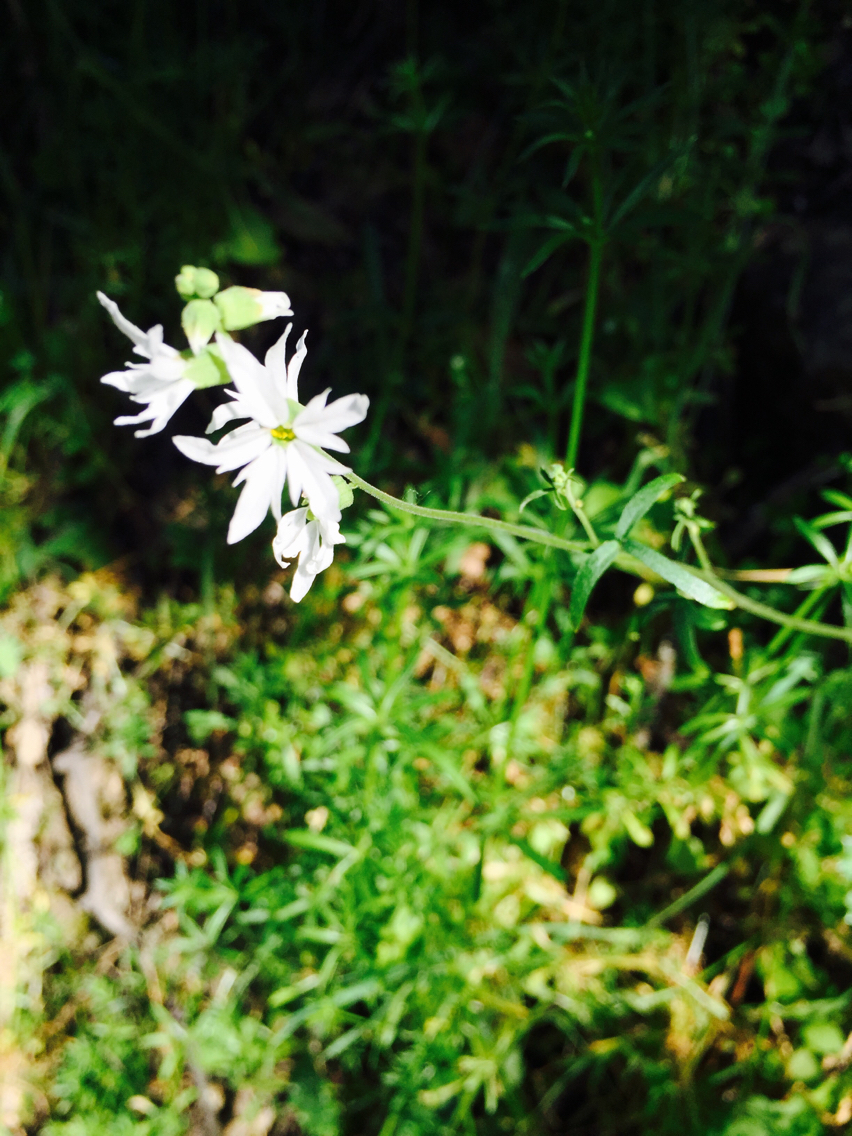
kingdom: Plantae
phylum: Tracheophyta
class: Magnoliopsida
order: Saxifragales
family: Saxifragaceae
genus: Lithophragma
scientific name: Lithophragma heterophyllum
